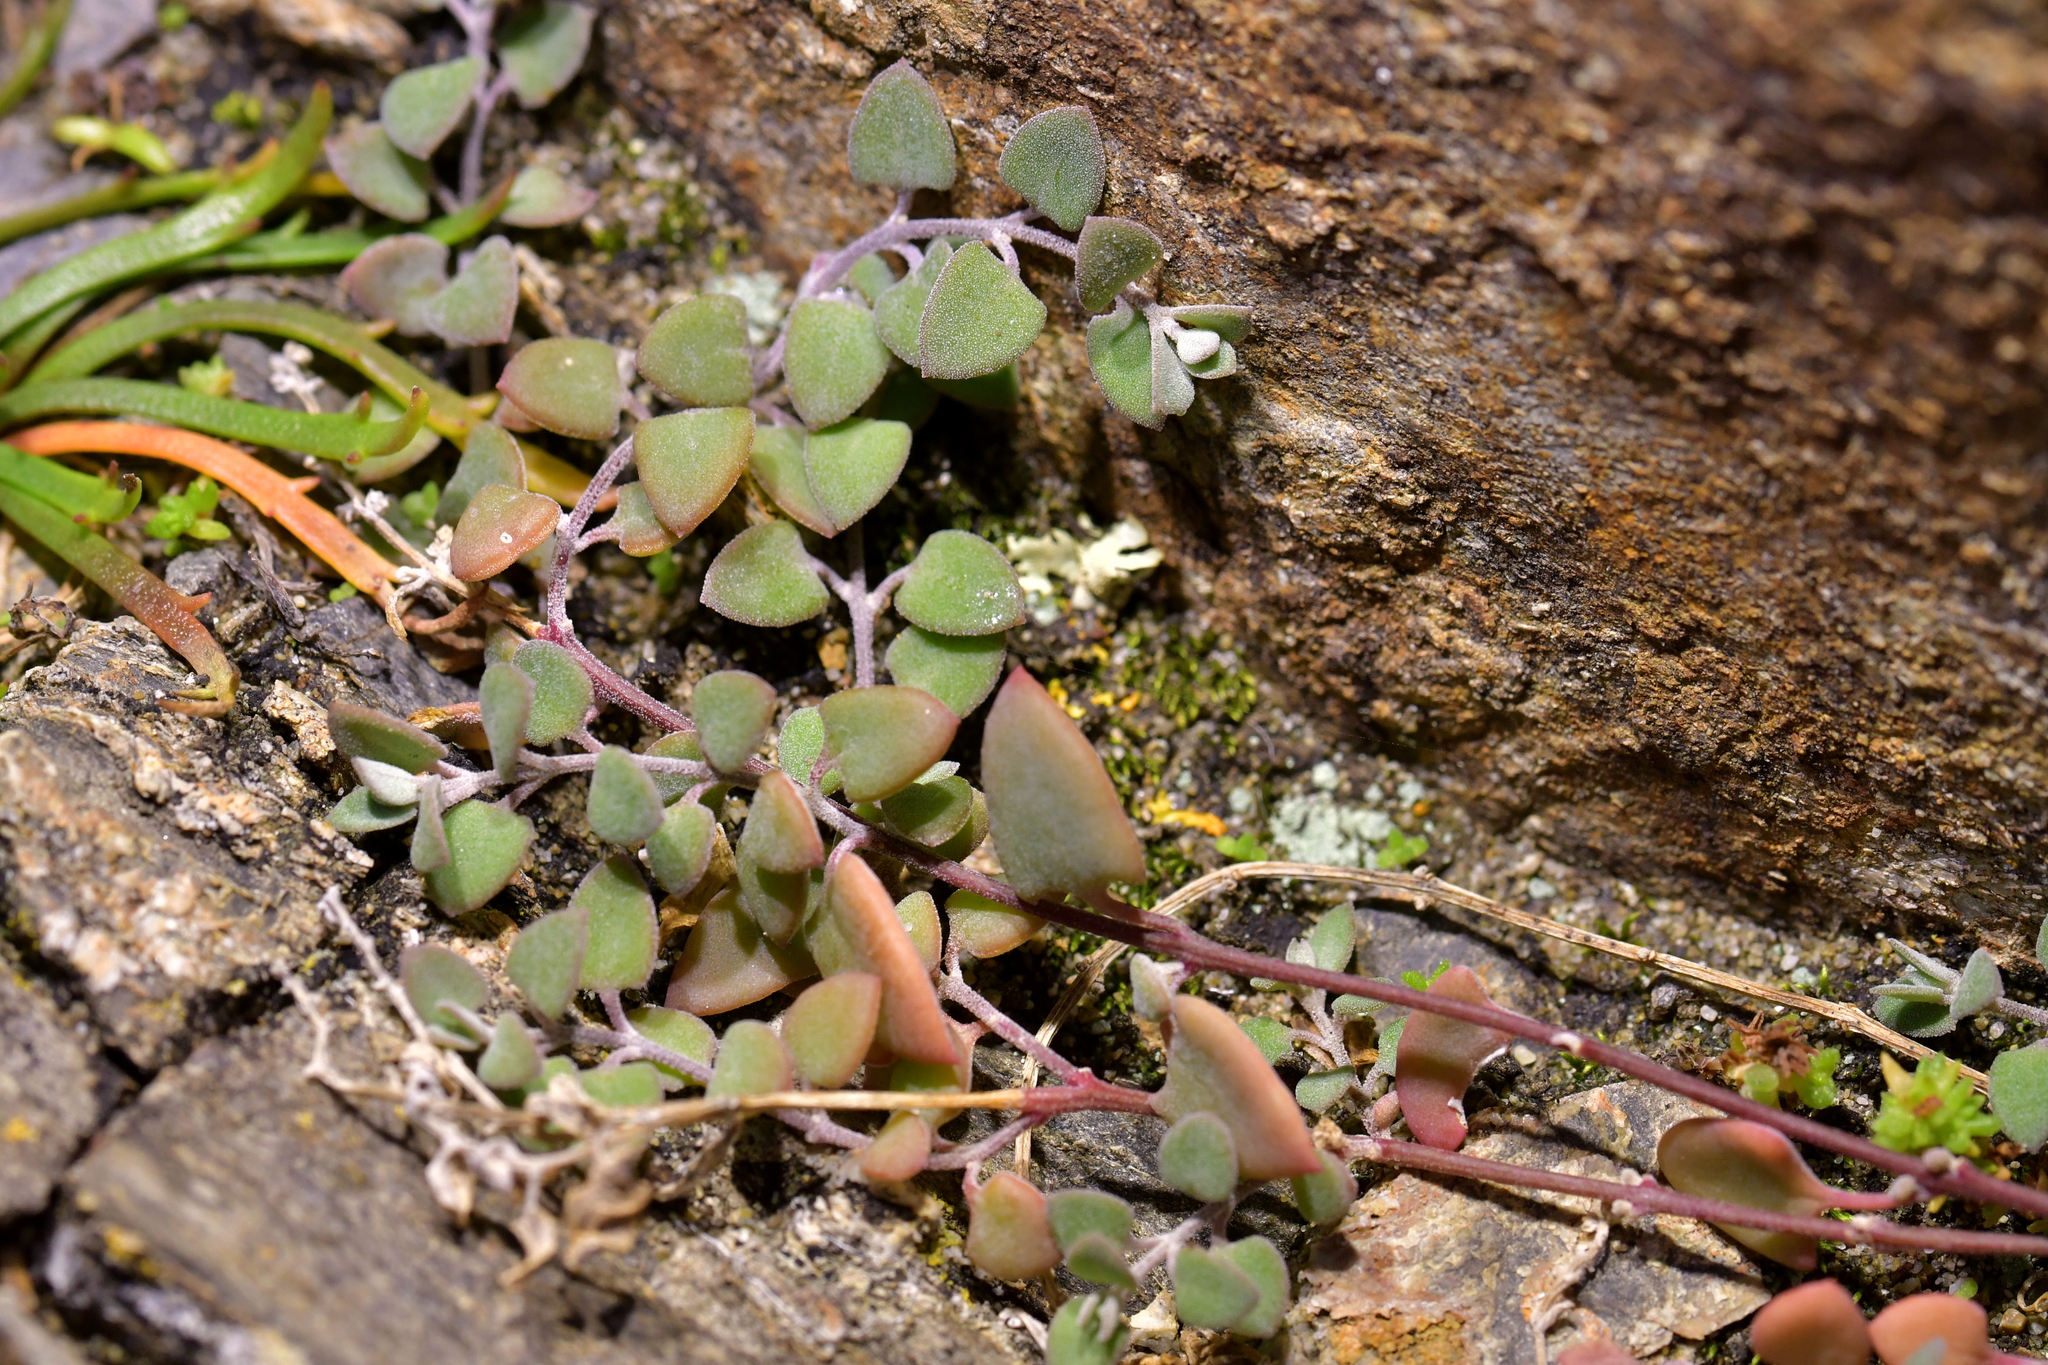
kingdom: Plantae
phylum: Tracheophyta
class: Magnoliopsida
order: Caryophyllales
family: Amaranthaceae
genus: Chenopodium
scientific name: Chenopodium triandrum
